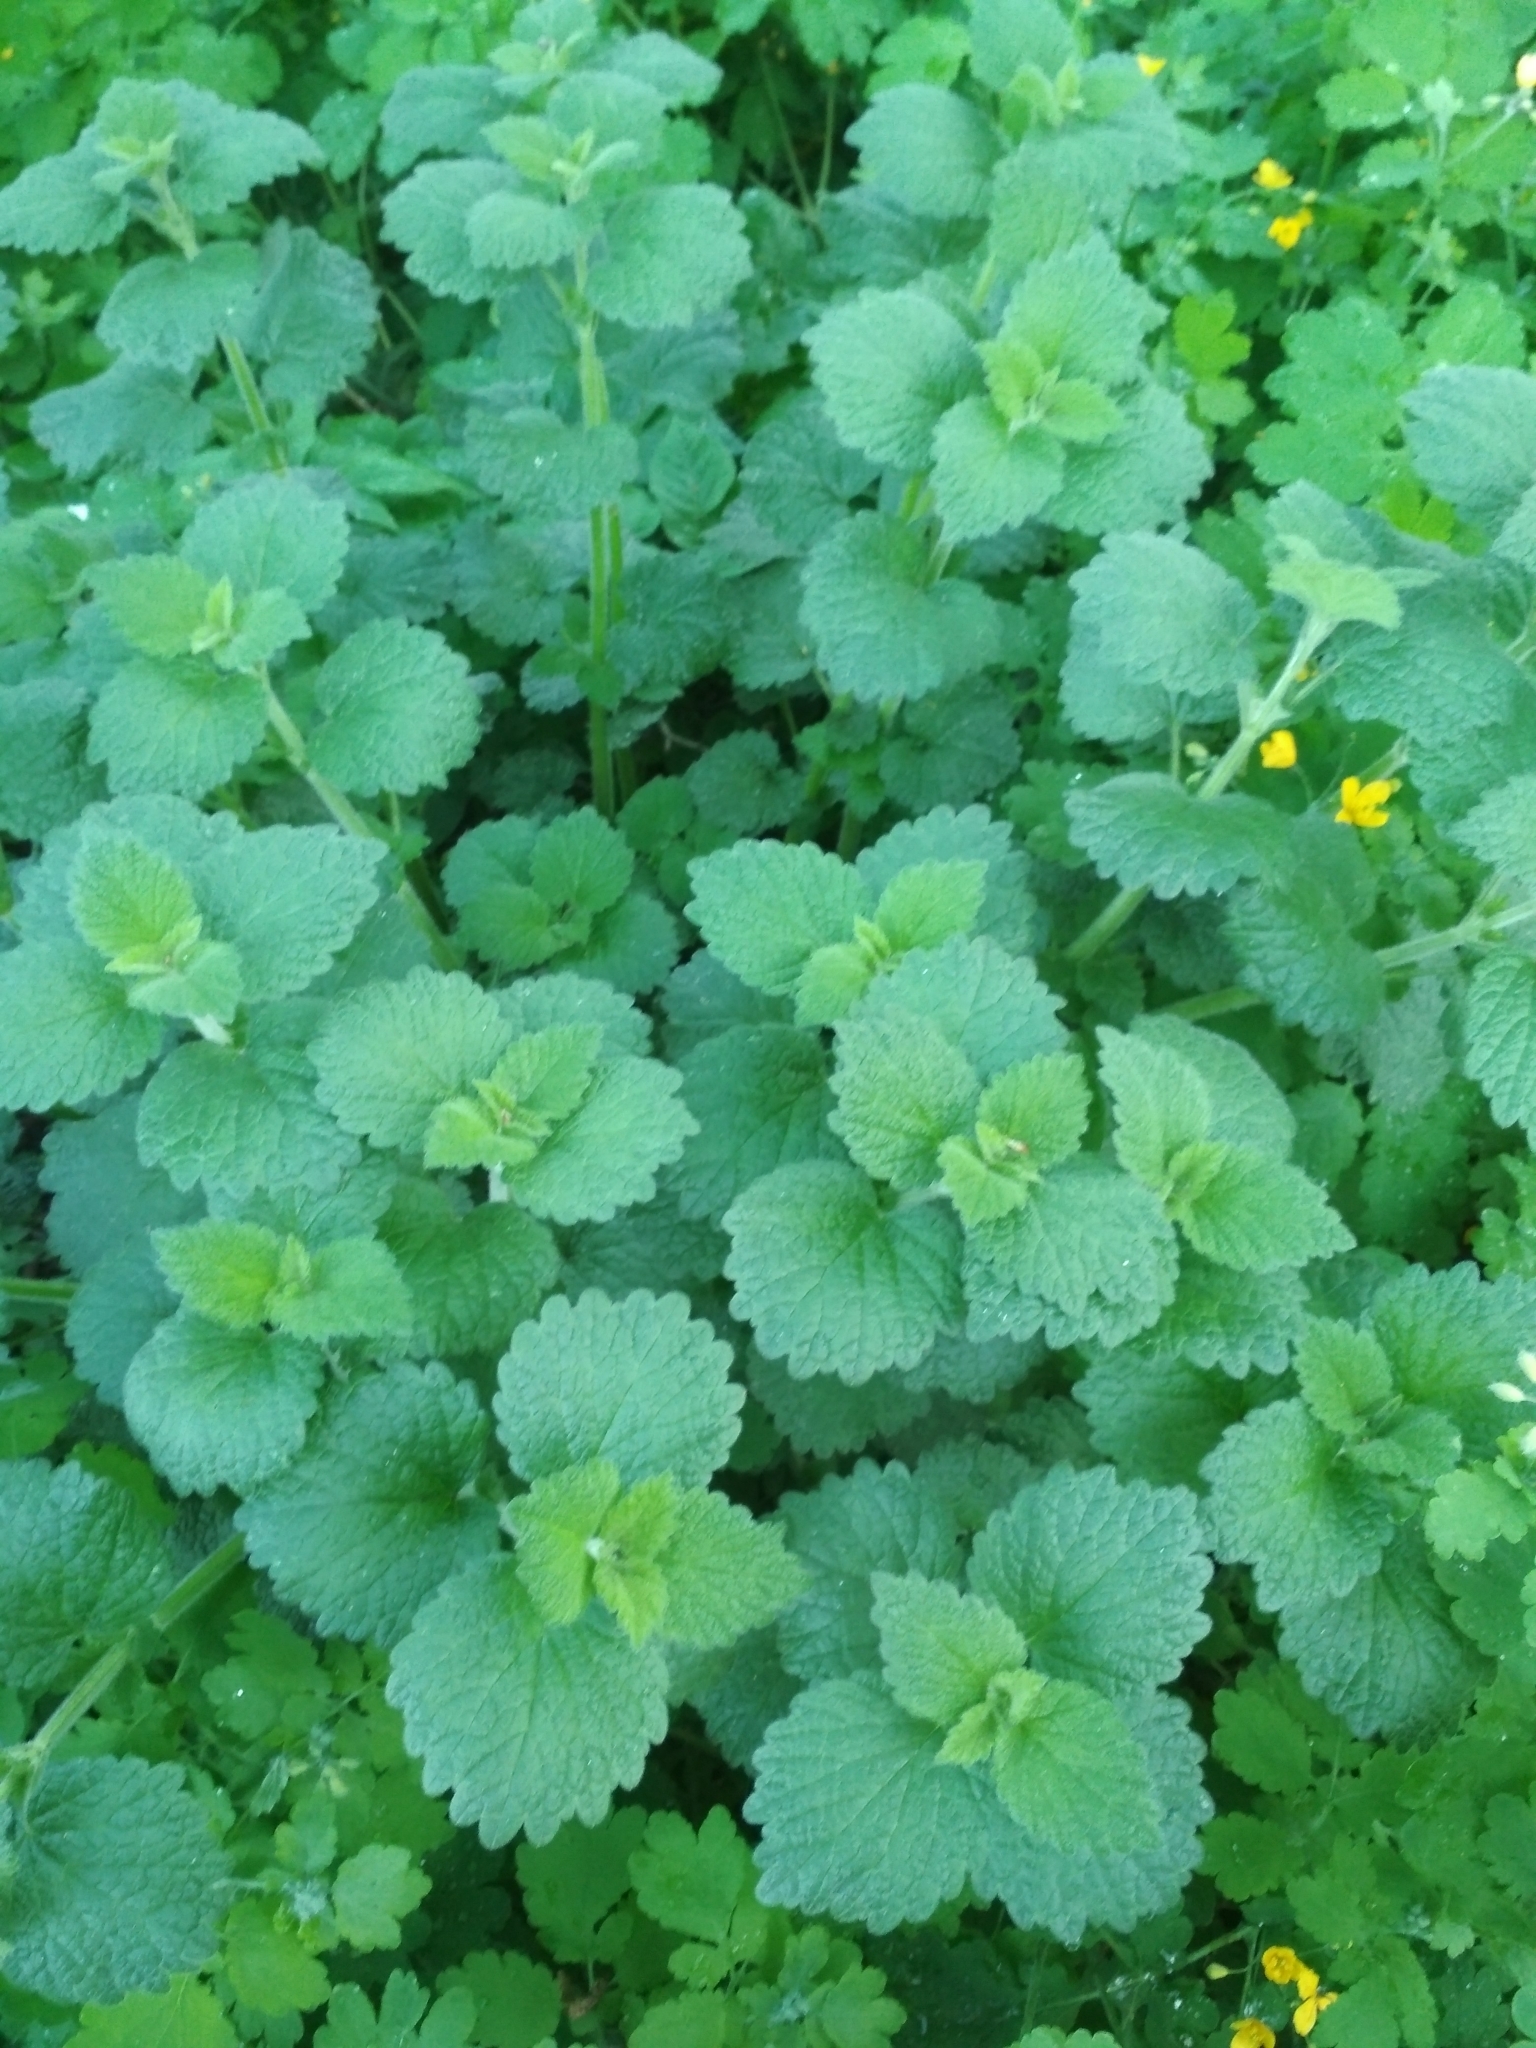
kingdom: Plantae
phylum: Tracheophyta
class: Magnoliopsida
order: Lamiales
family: Lamiaceae
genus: Ballota
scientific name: Ballota nigra
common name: Black horehound
